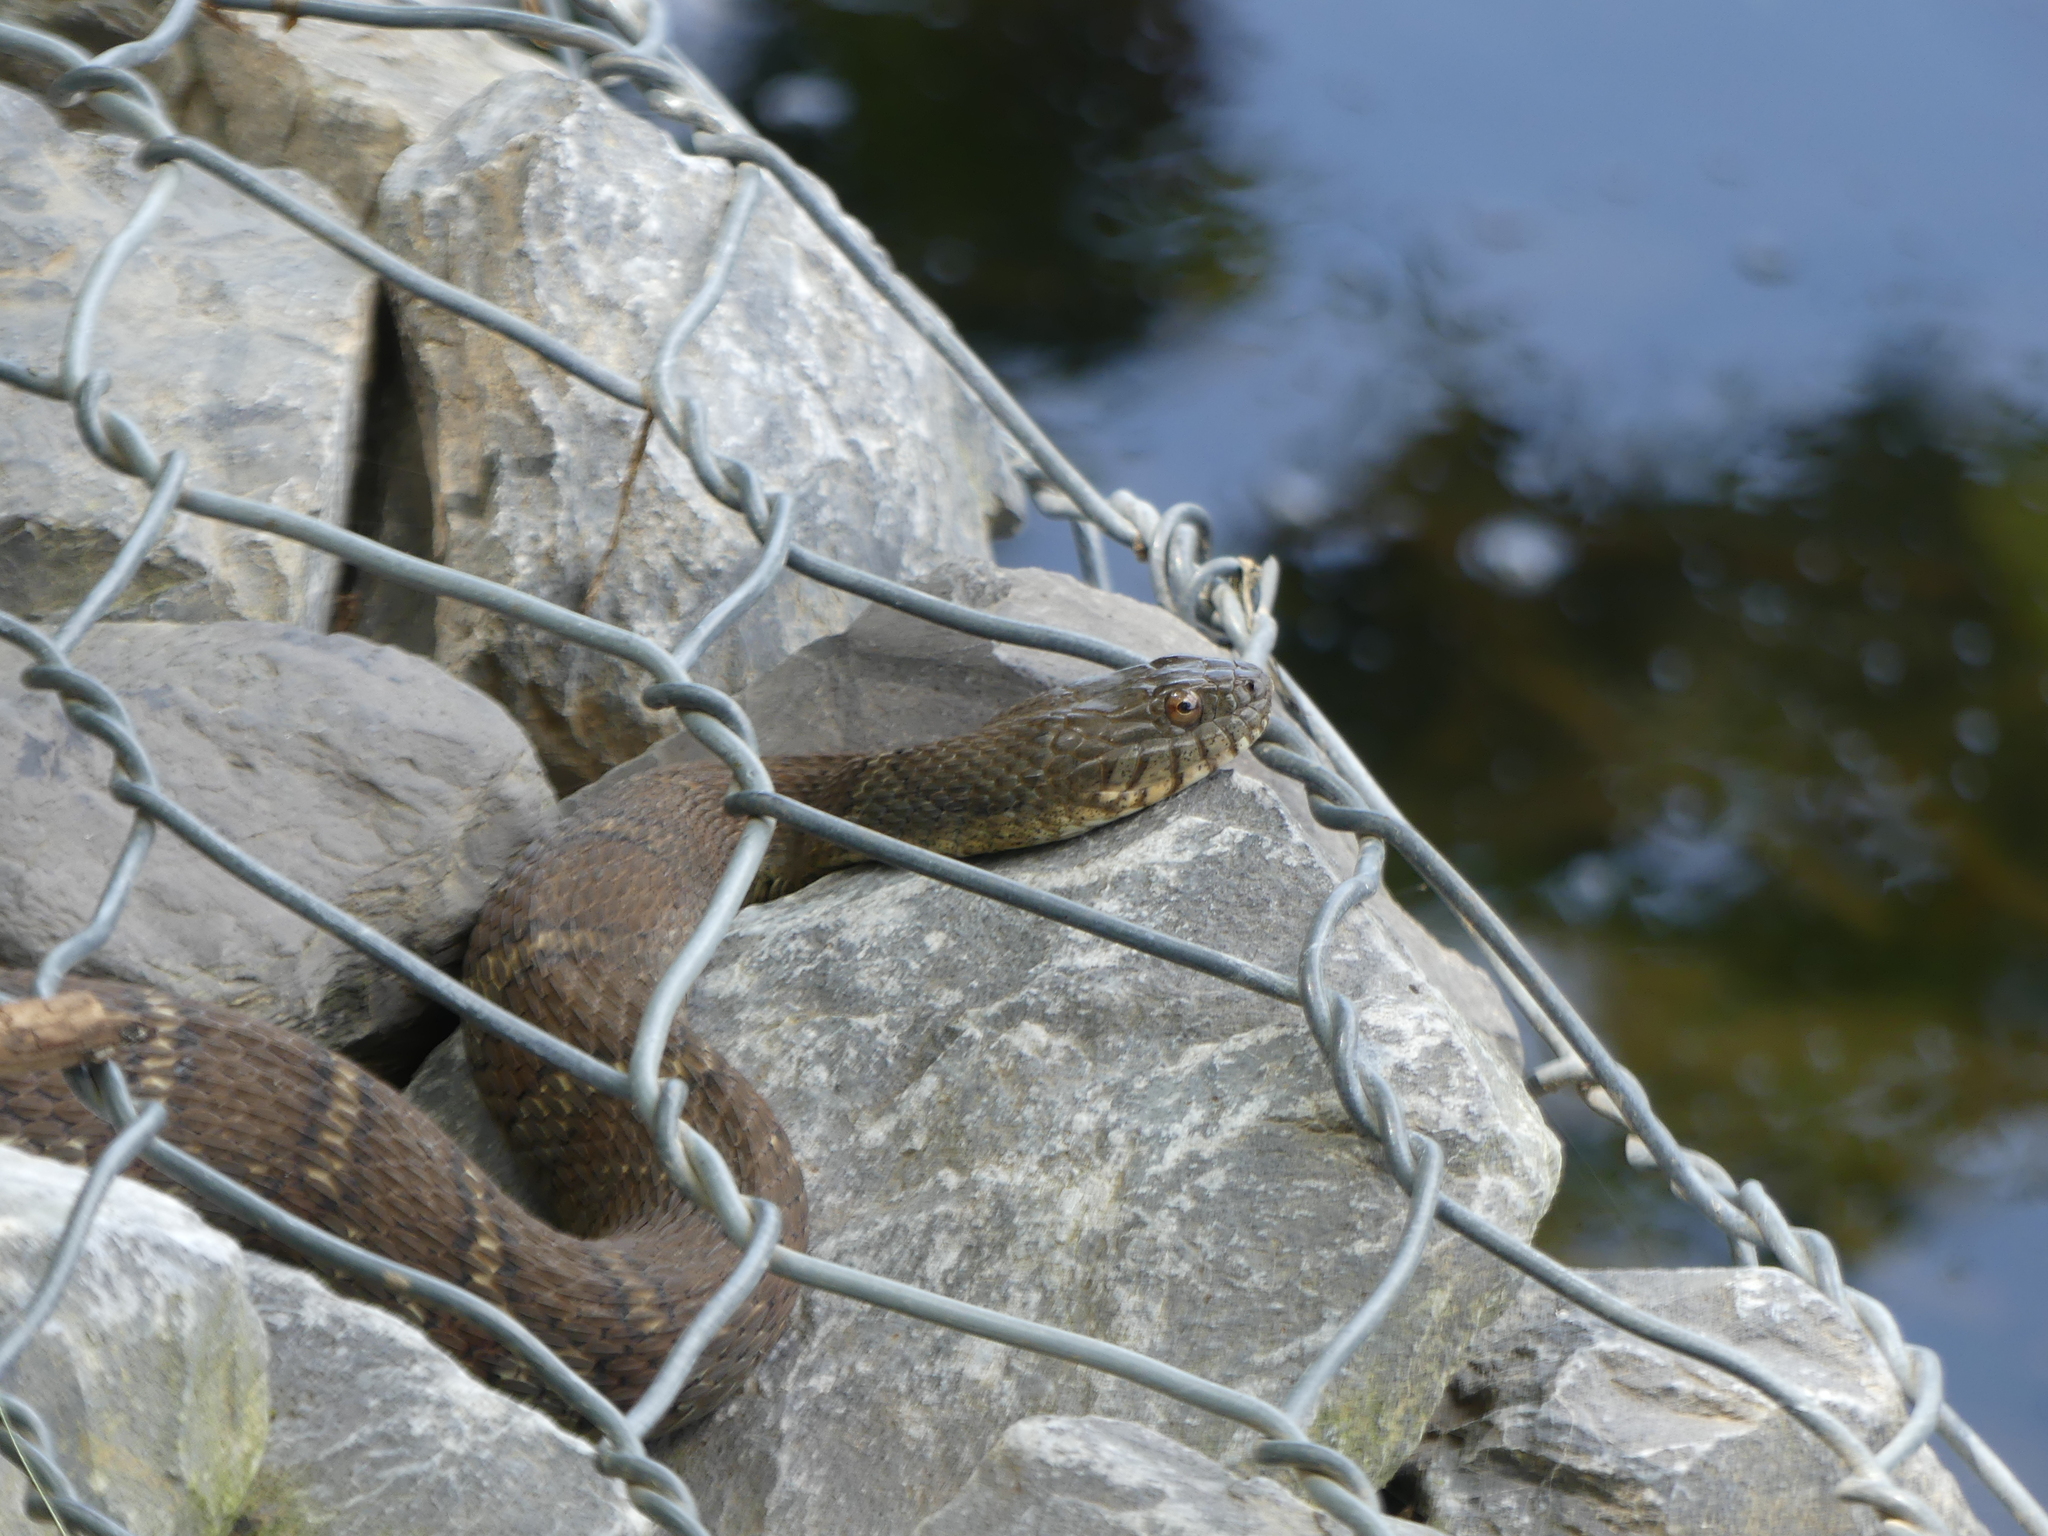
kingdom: Animalia
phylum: Chordata
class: Squamata
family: Colubridae
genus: Nerodia
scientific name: Nerodia sipedon
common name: Northern water snake
